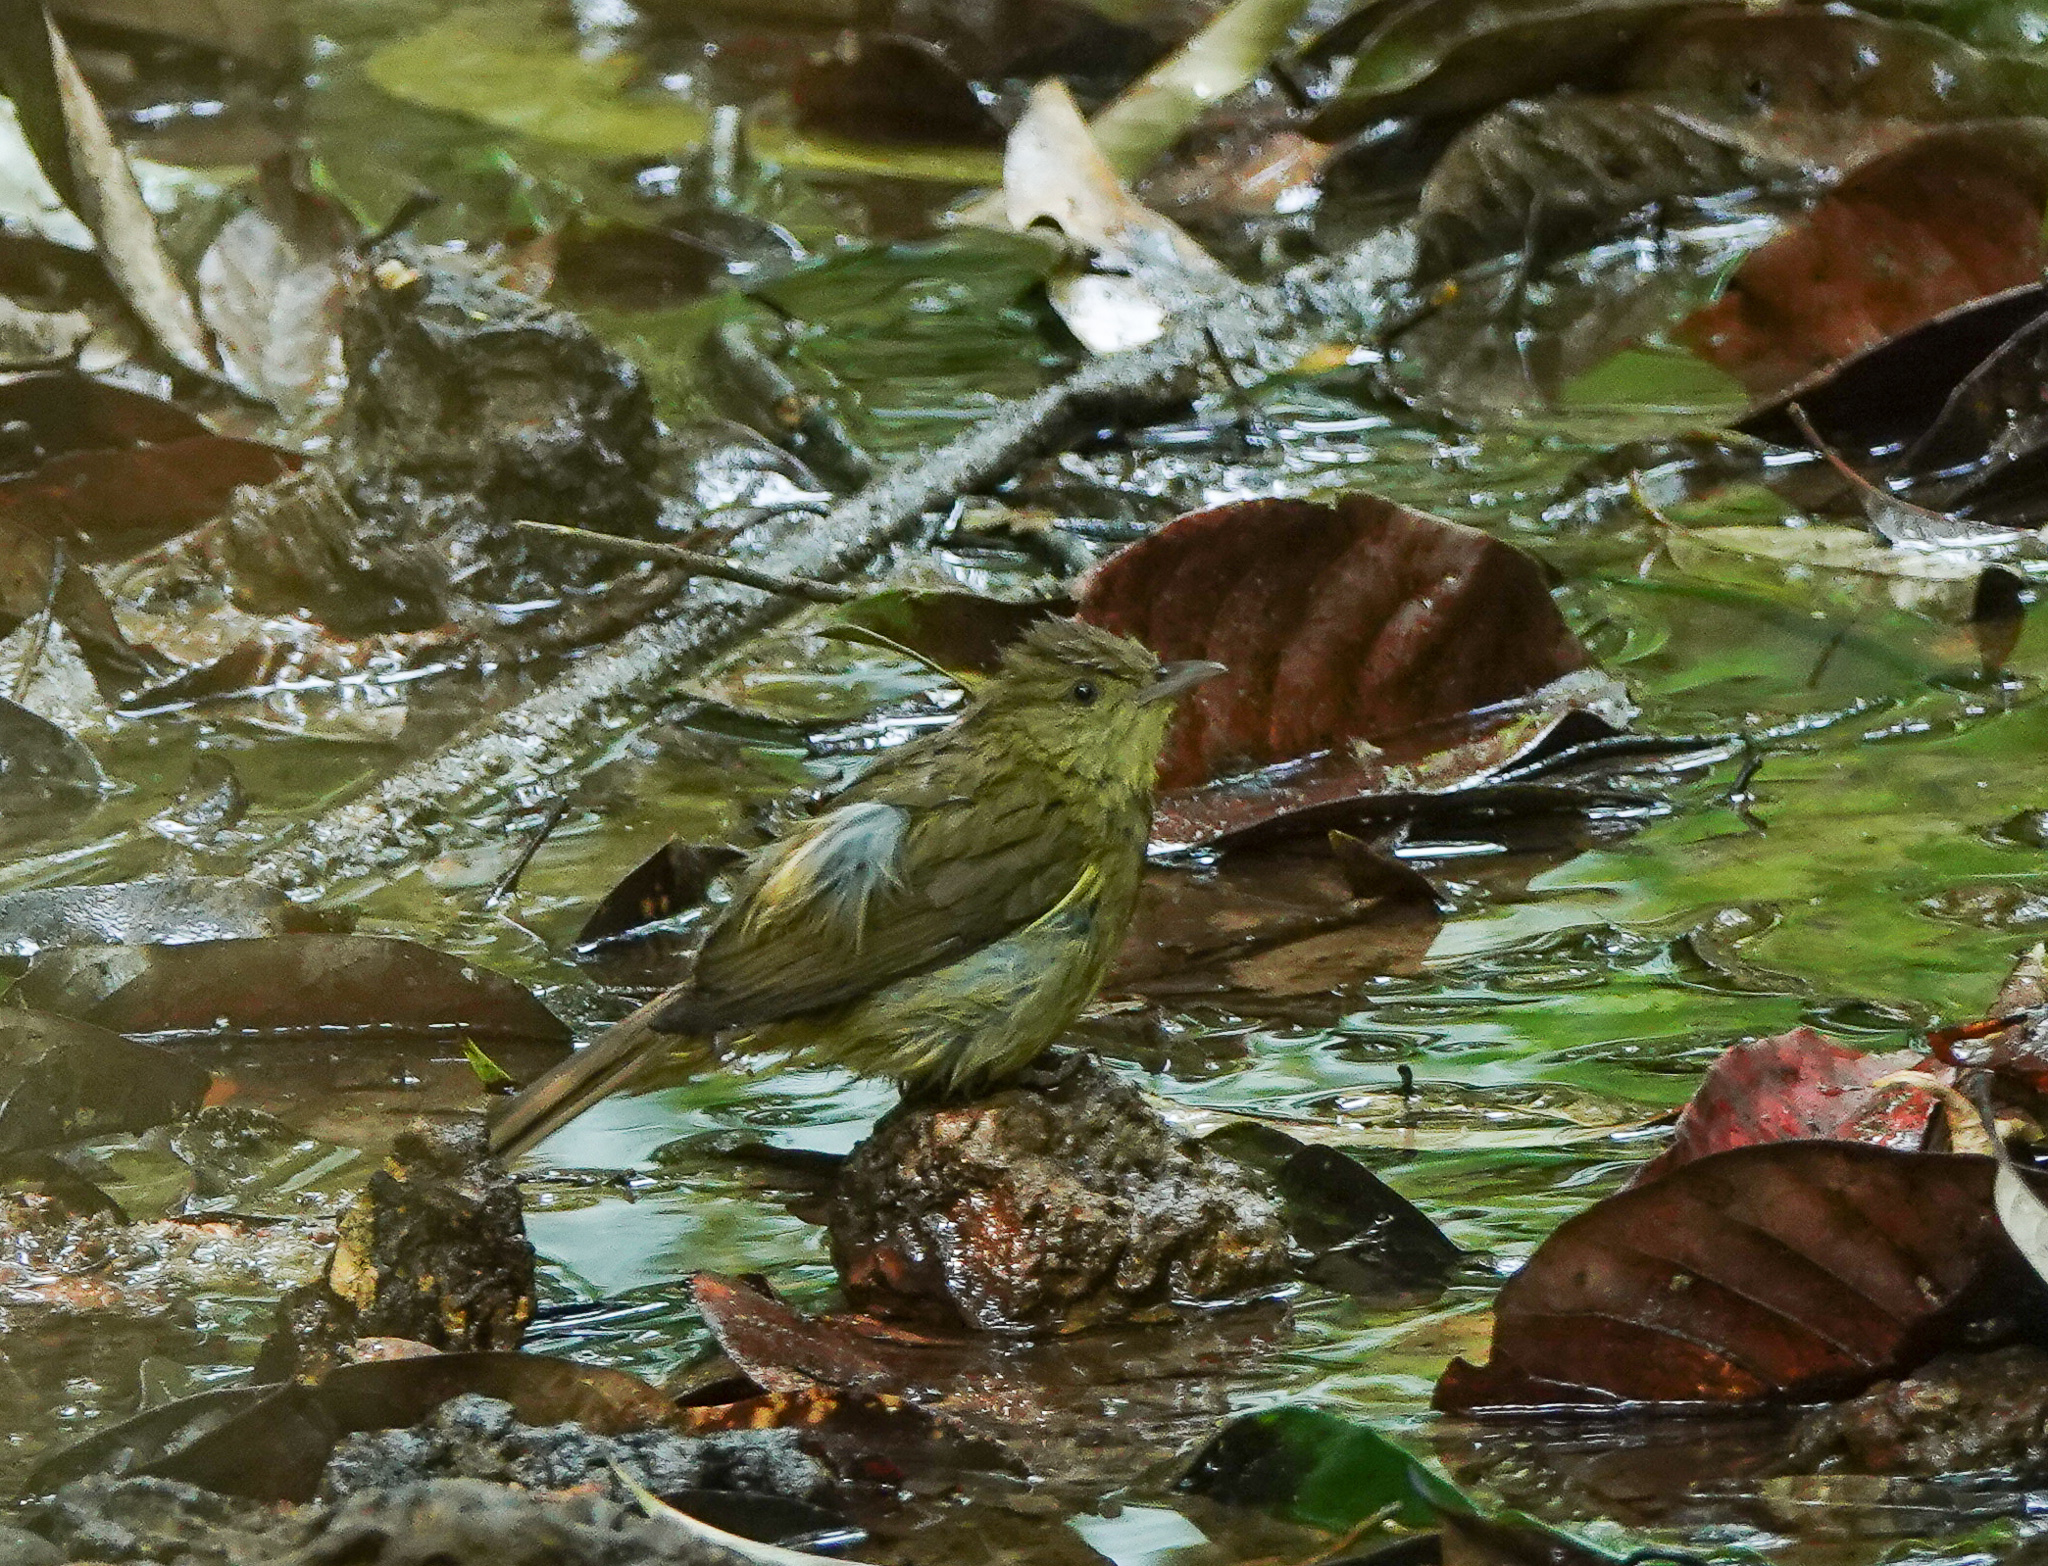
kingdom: Animalia
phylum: Chordata
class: Aves
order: Passeriformes
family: Pycnonotidae
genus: Iole
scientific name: Iole virescens
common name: Olive bulbul
